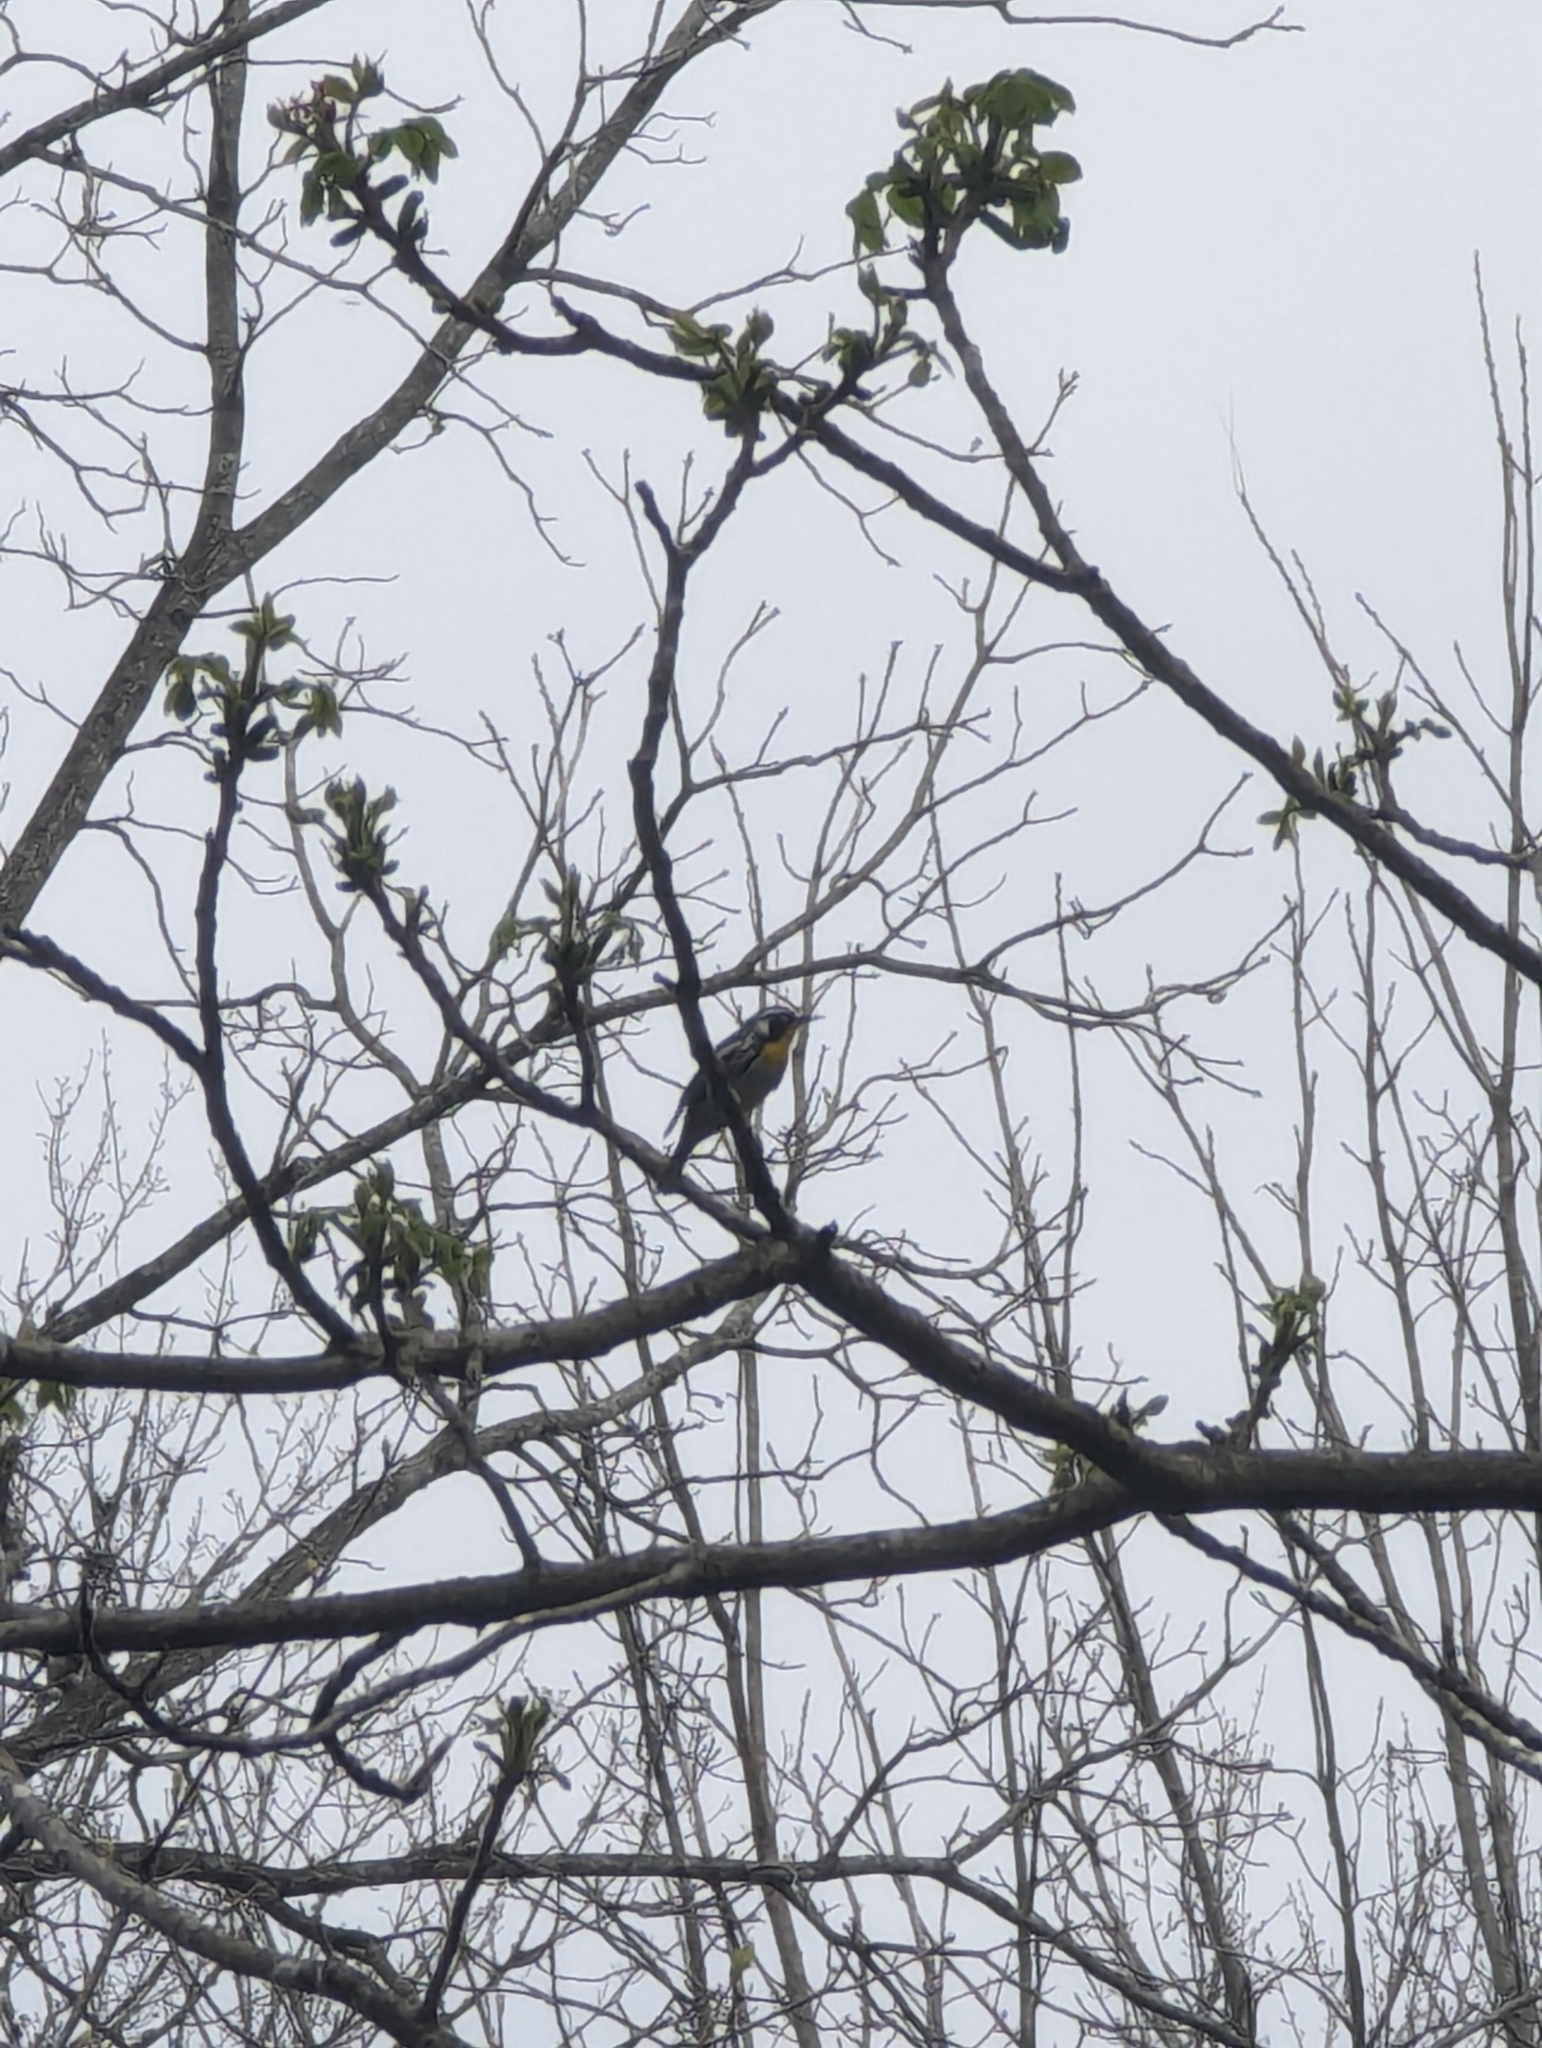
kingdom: Animalia
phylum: Chordata
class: Aves
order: Passeriformes
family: Parulidae
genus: Setophaga
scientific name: Setophaga dominica
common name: Yellow-throated warbler
